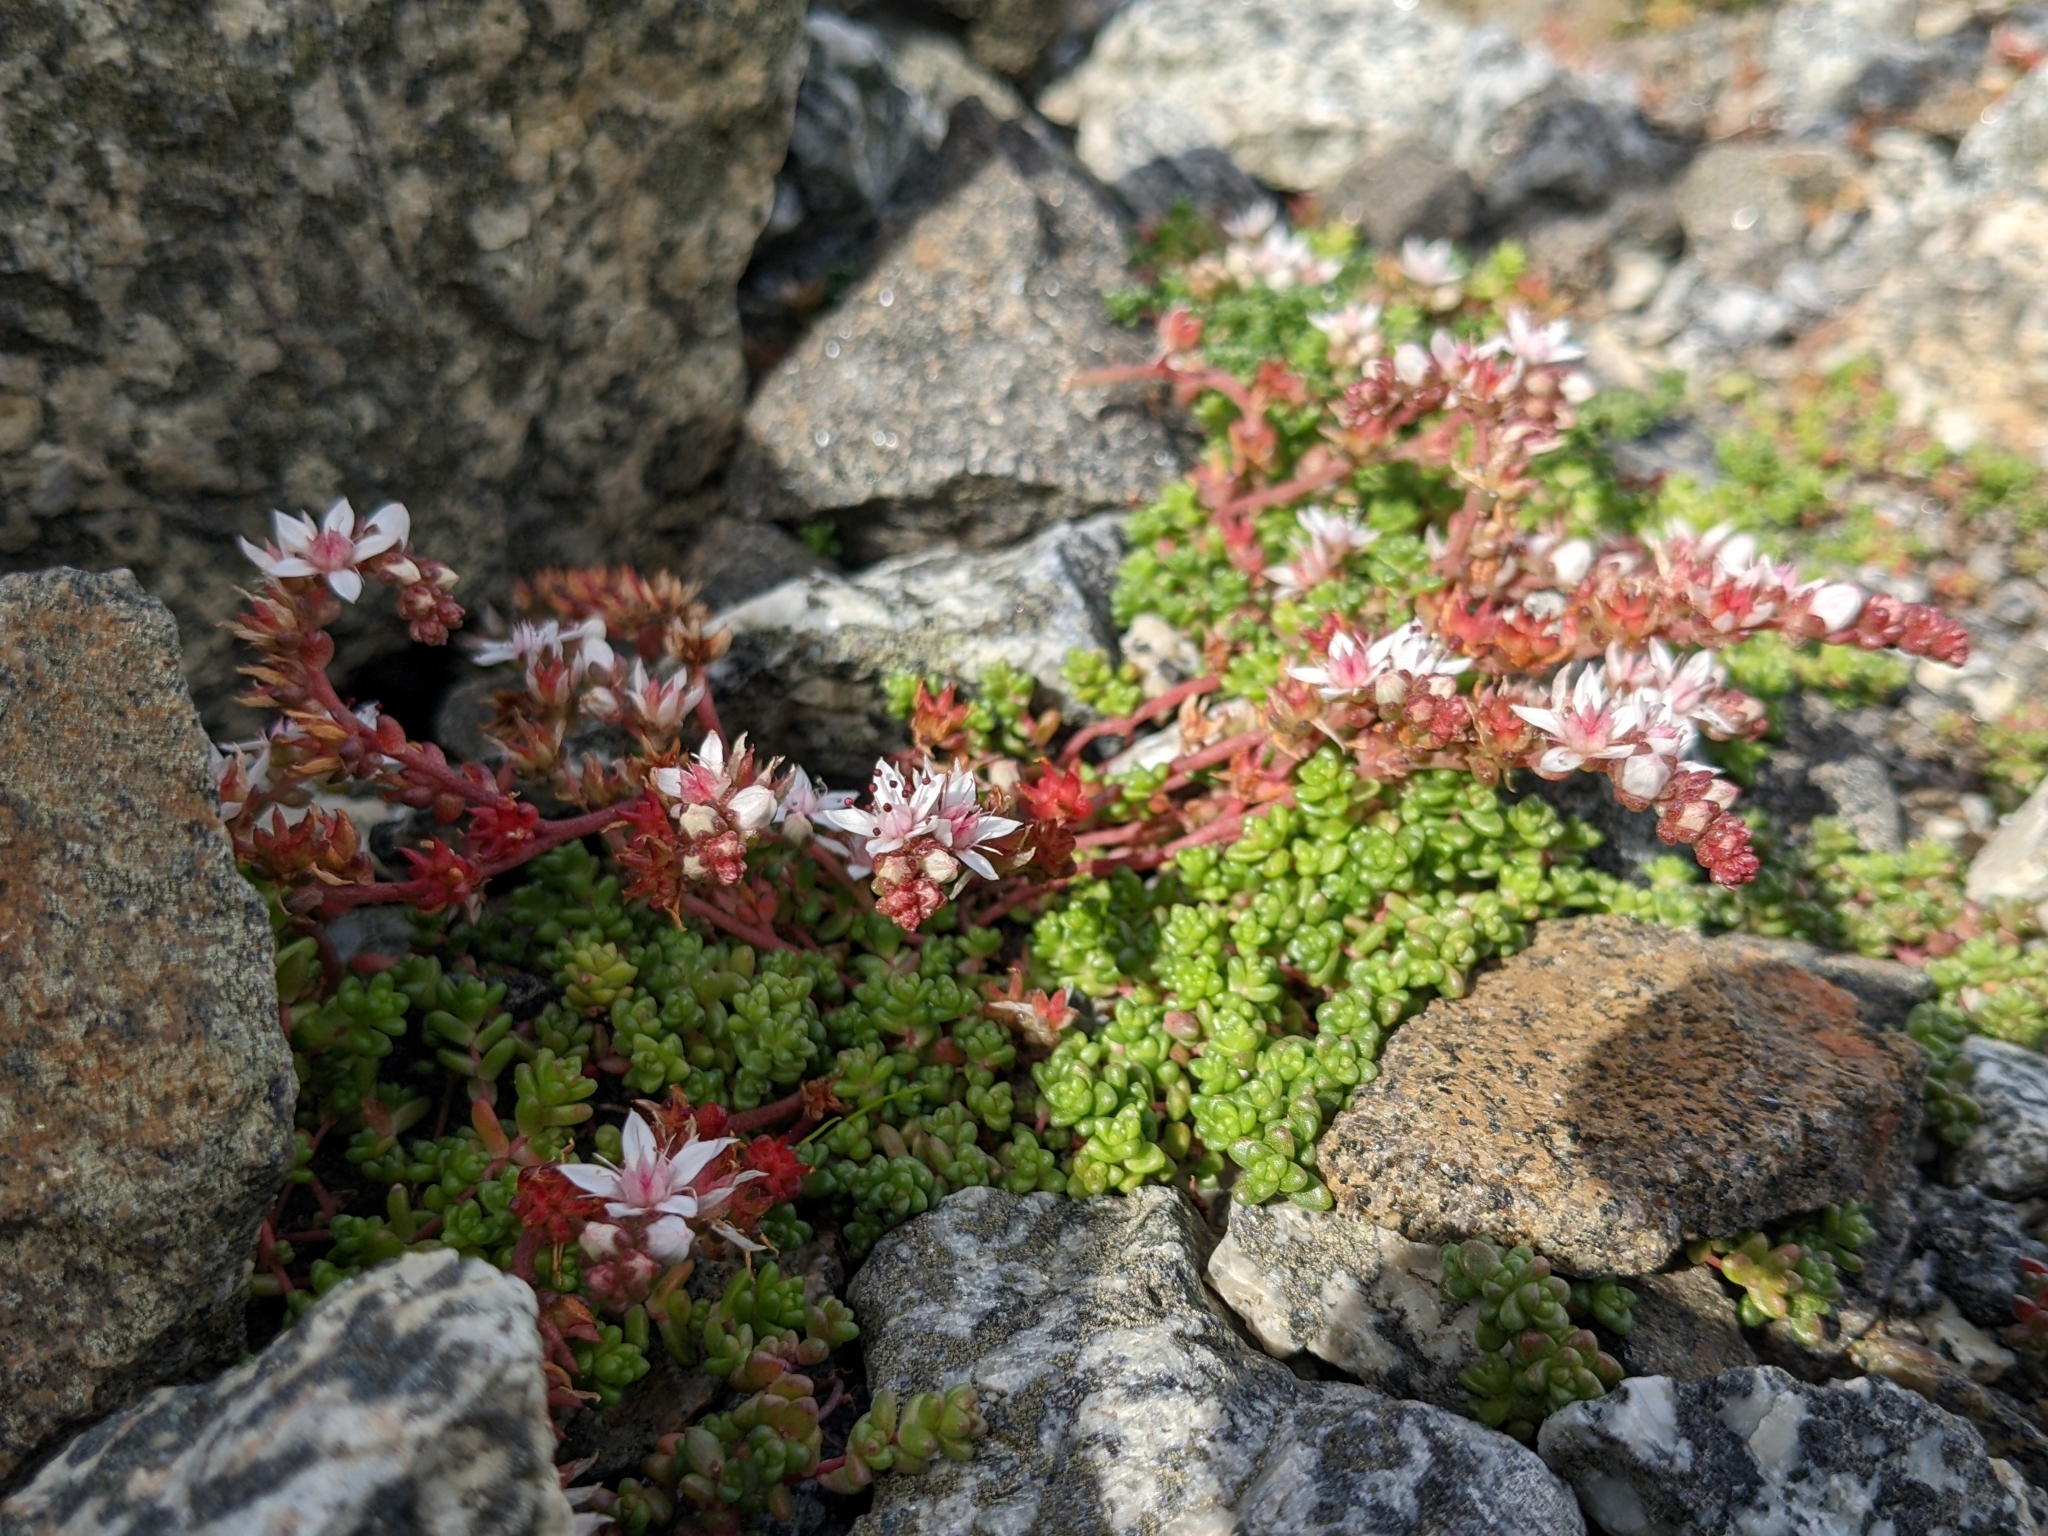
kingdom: Plantae
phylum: Tracheophyta
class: Magnoliopsida
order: Saxifragales
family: Crassulaceae
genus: Sedum
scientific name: Sedum anglicum
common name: English stonecrop
